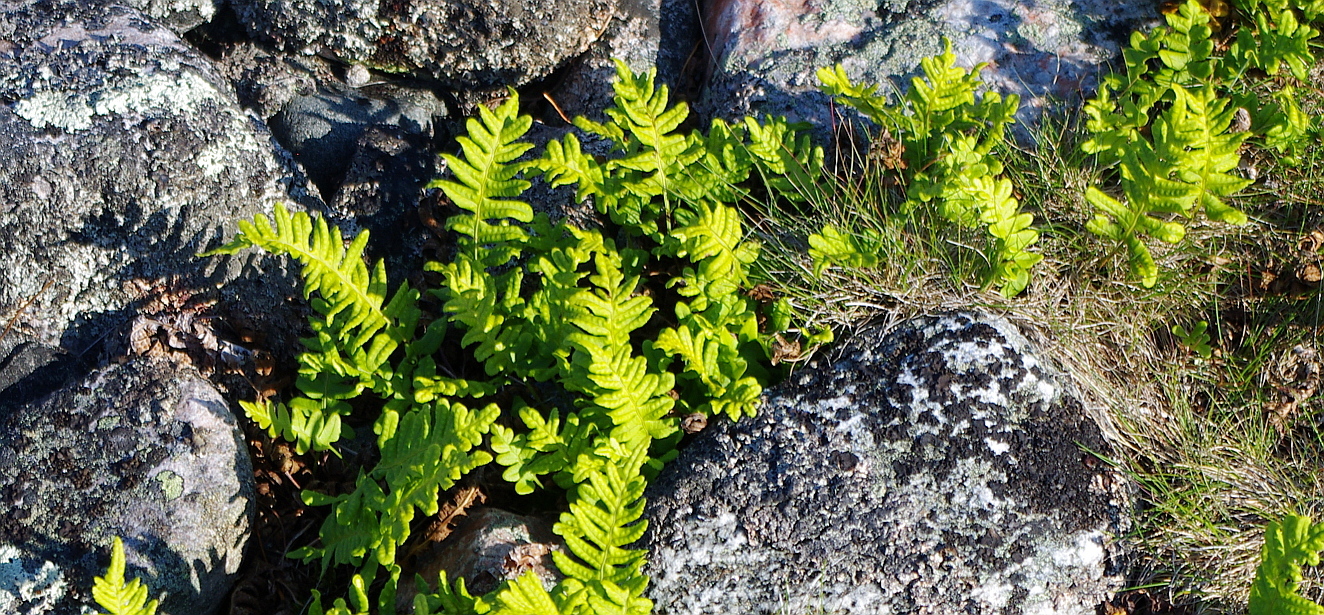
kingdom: Plantae
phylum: Tracheophyta
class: Polypodiopsida
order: Polypodiales
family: Polypodiaceae
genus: Polypodium
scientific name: Polypodium vulgare
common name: Common polypody
